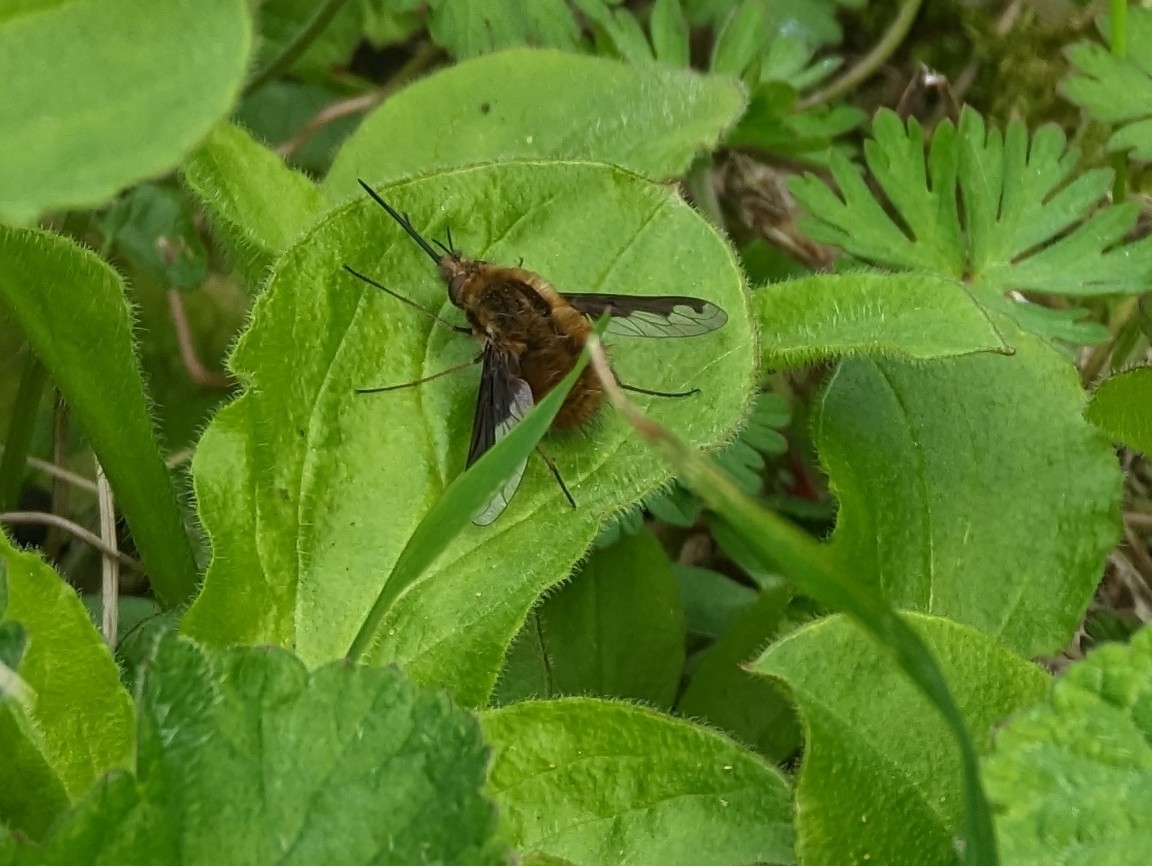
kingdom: Animalia
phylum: Arthropoda
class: Insecta
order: Diptera
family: Bombyliidae
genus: Bombylius
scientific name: Bombylius major
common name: Bee fly
